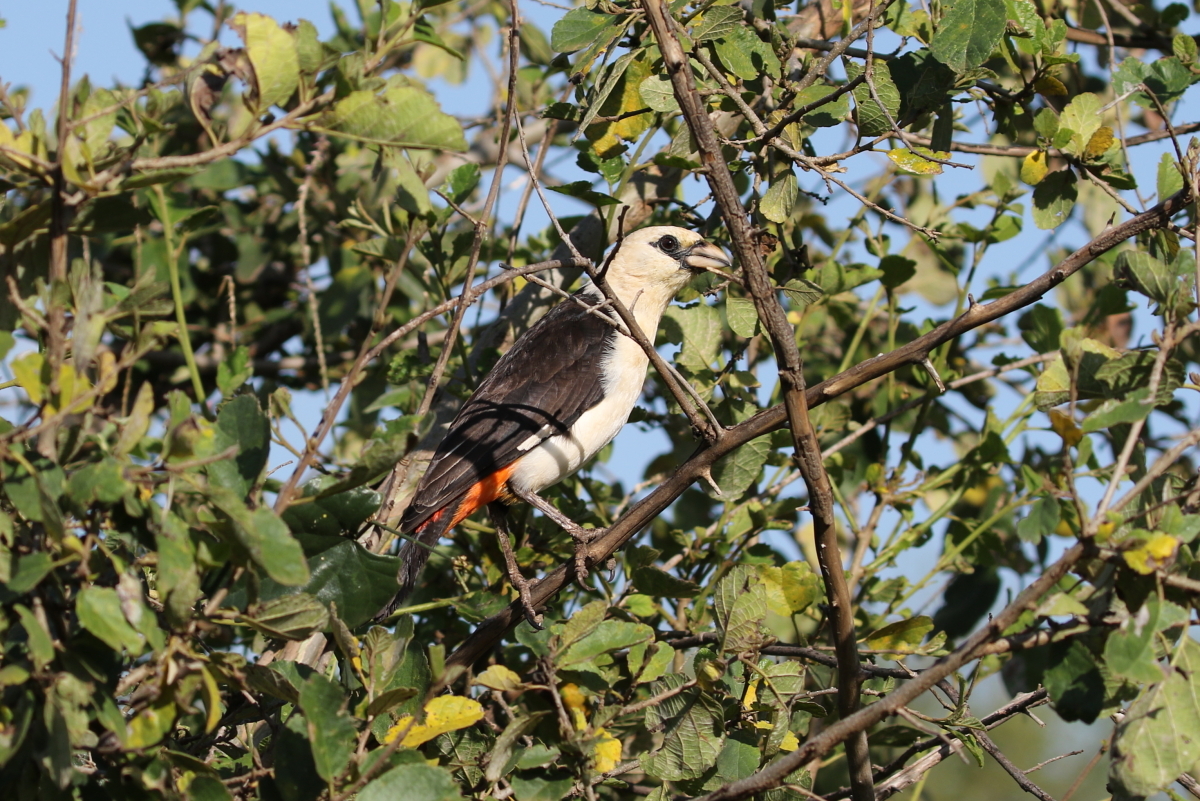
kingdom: Animalia
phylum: Chordata
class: Aves
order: Passeriformes
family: Ploceidae
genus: Dinemellia
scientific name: Dinemellia dinemelli
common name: White-headed buffalo weaver
